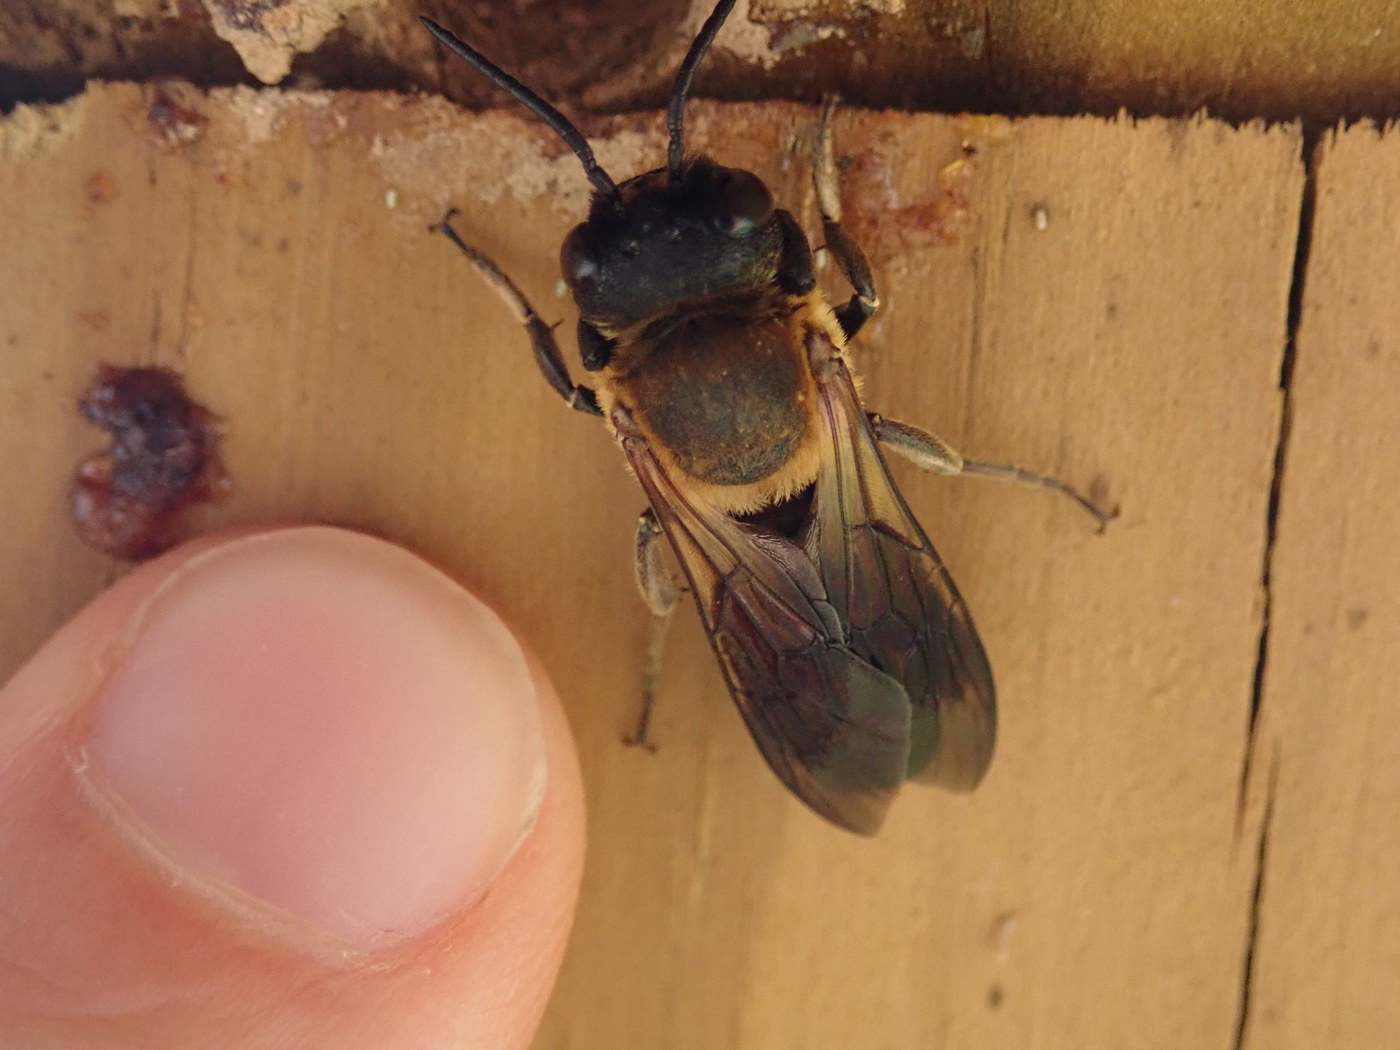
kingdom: Animalia
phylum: Arthropoda
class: Insecta
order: Hymenoptera
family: Megachilidae
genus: Megachile
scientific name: Megachile sculpturalis
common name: Sculptured resin bee
